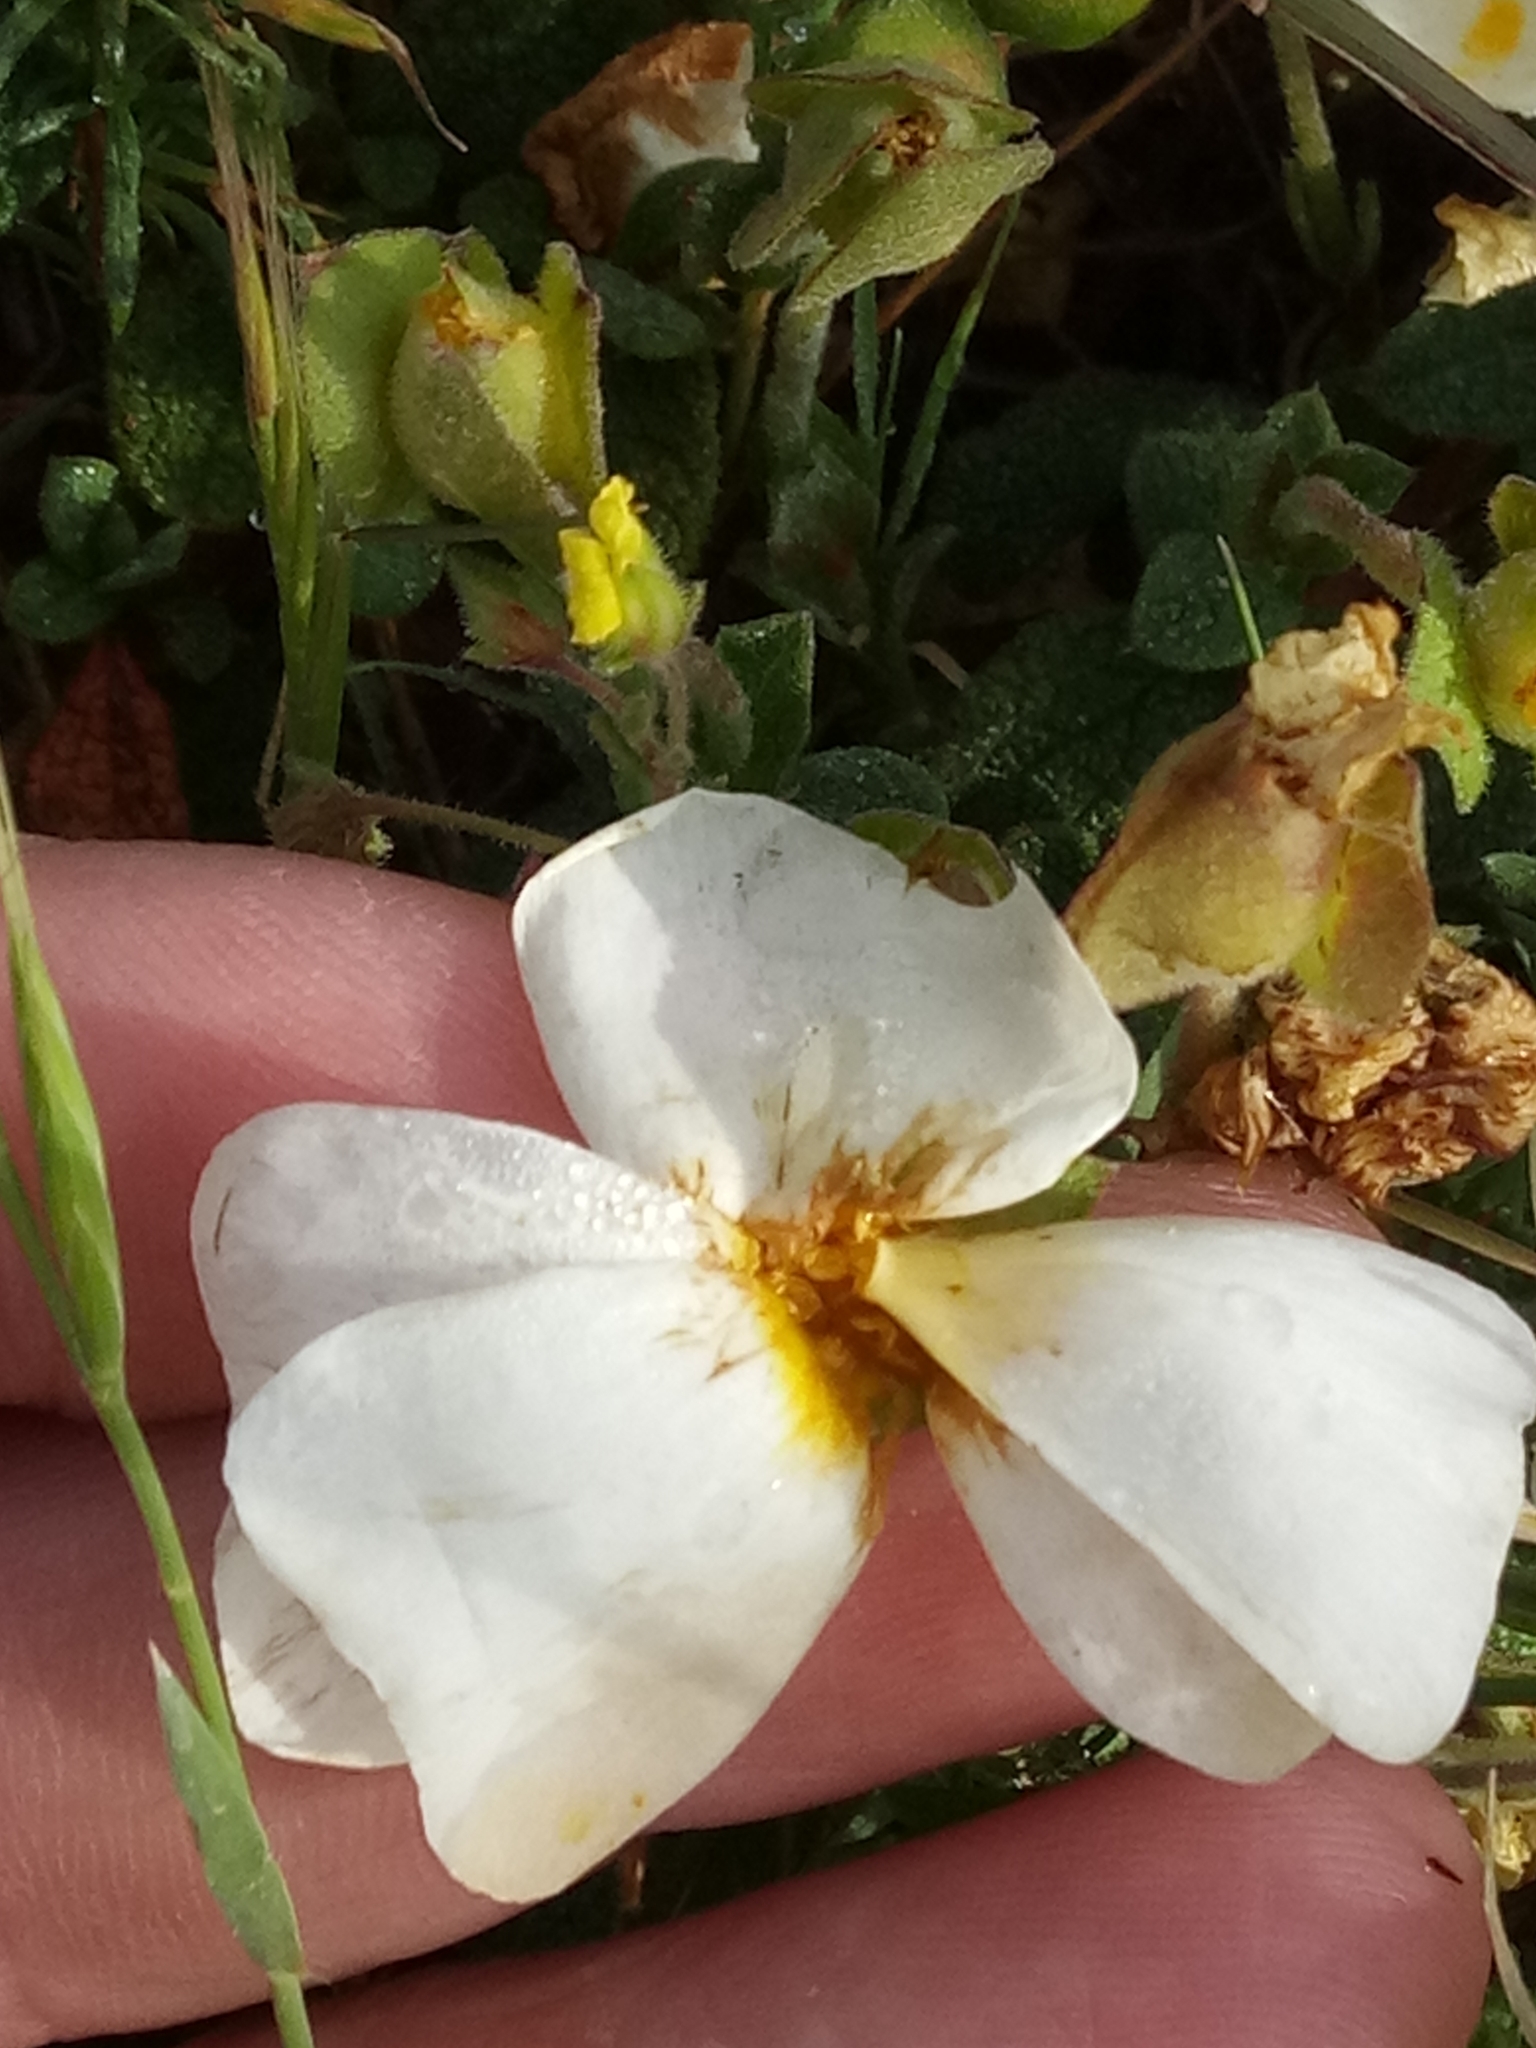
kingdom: Plantae
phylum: Tracheophyta
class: Magnoliopsida
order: Malvales
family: Cistaceae
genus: Cistus
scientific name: Cistus salviifolius
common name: Salvia cistus
